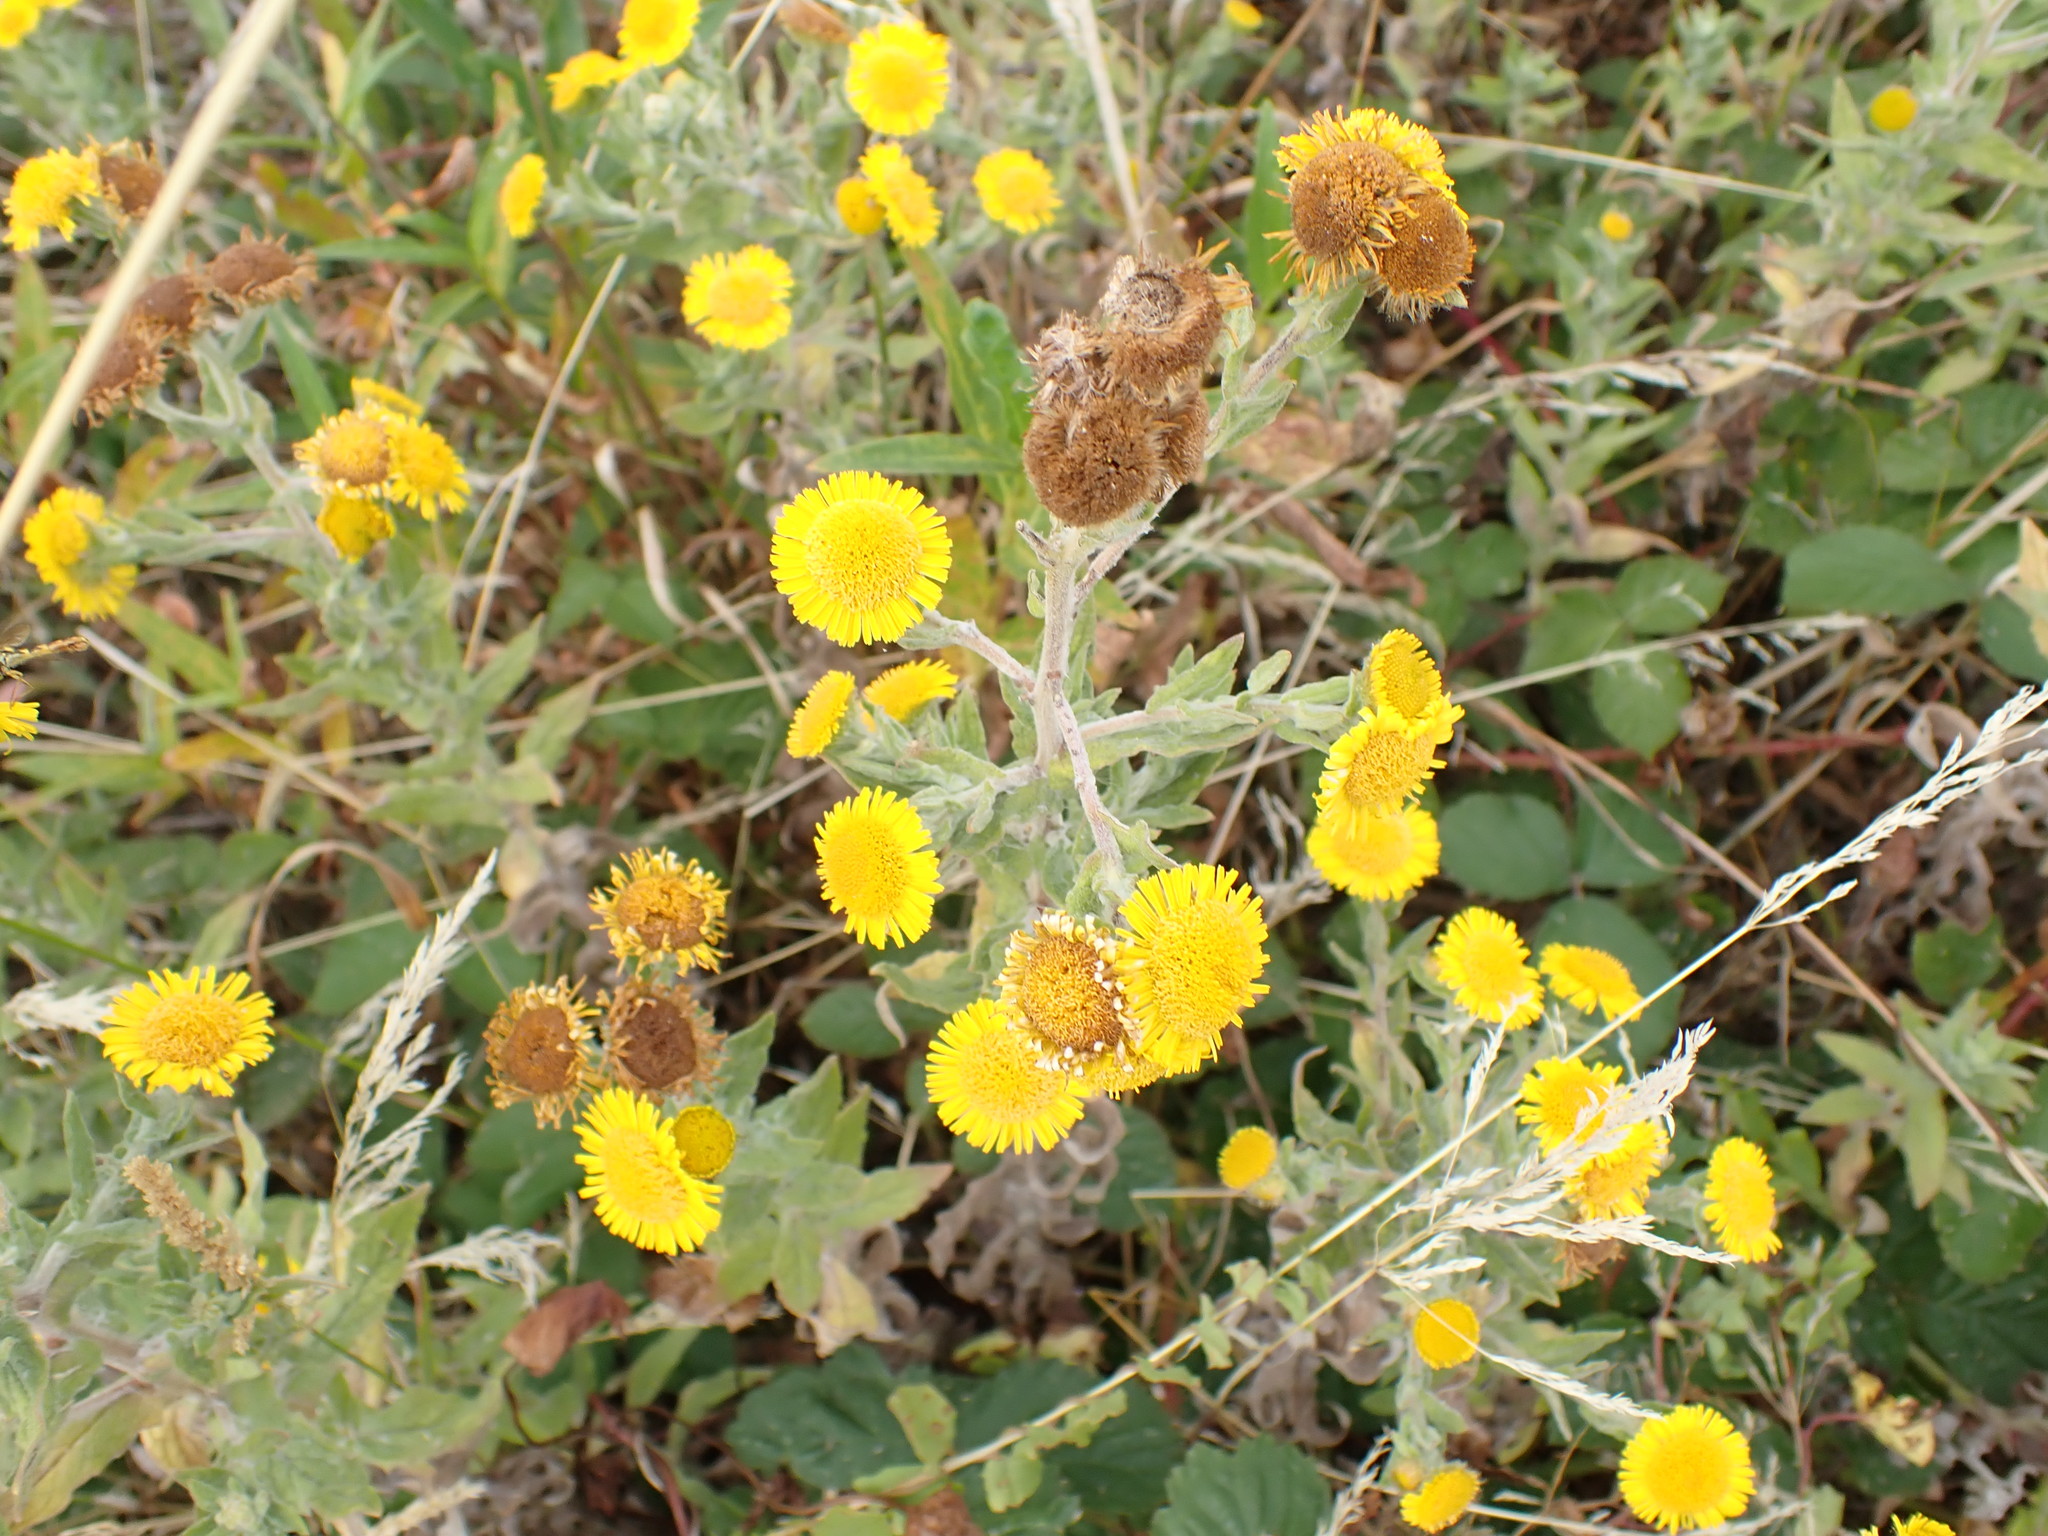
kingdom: Plantae
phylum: Tracheophyta
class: Magnoliopsida
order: Asterales
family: Asteraceae
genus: Pulicaria
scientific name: Pulicaria dysenterica
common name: Common fleabane
